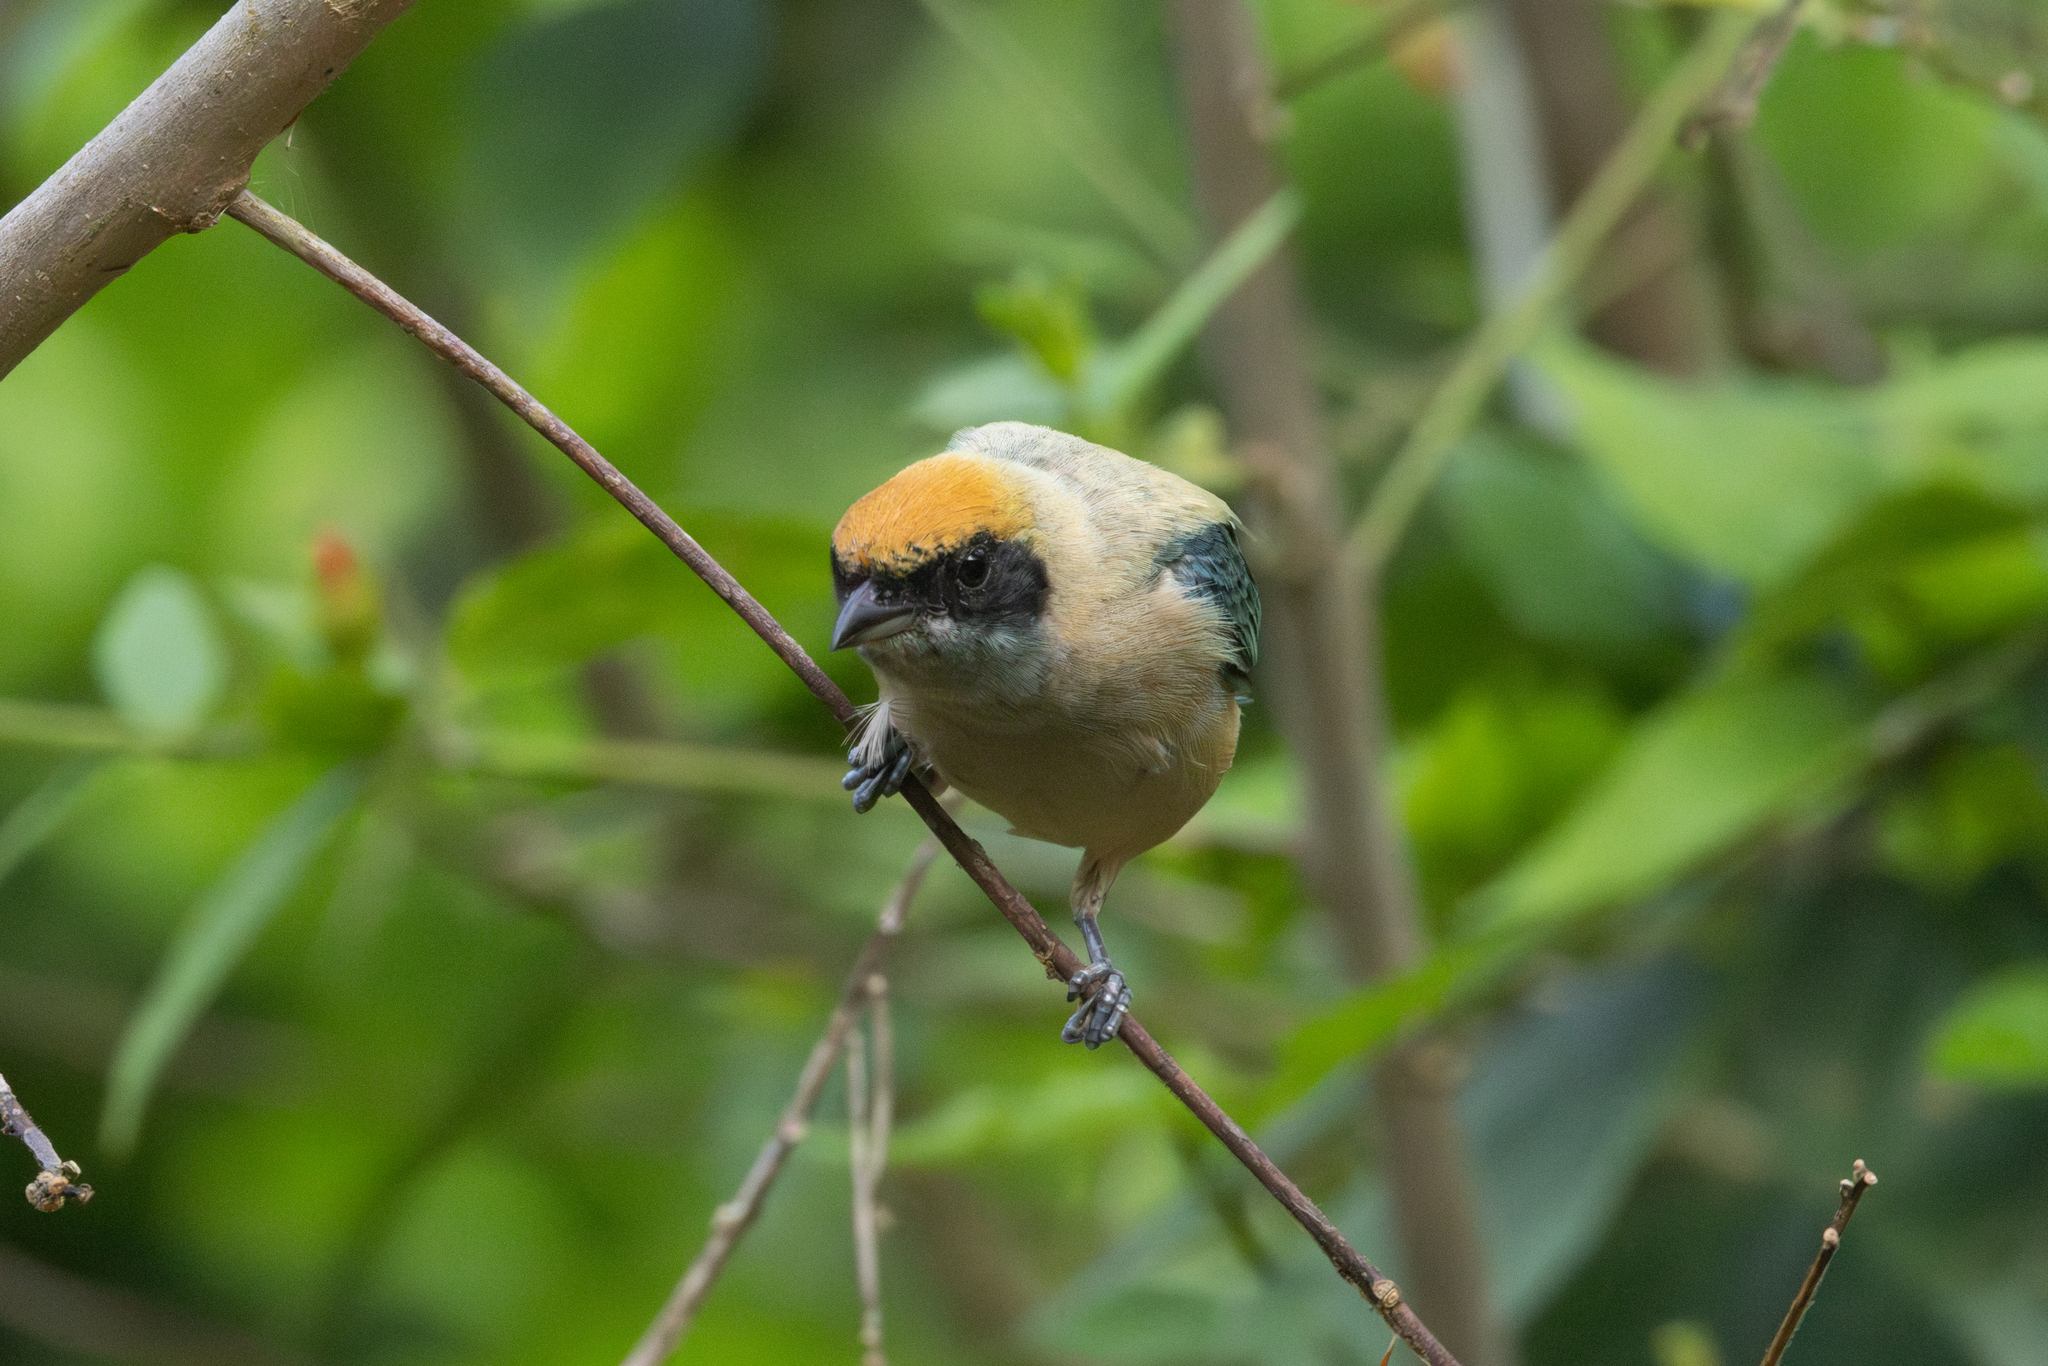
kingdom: Animalia
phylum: Chordata
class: Aves
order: Passeriformes
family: Thraupidae
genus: Stilpnia
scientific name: Stilpnia cayana
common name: Burnished-buff tanager
